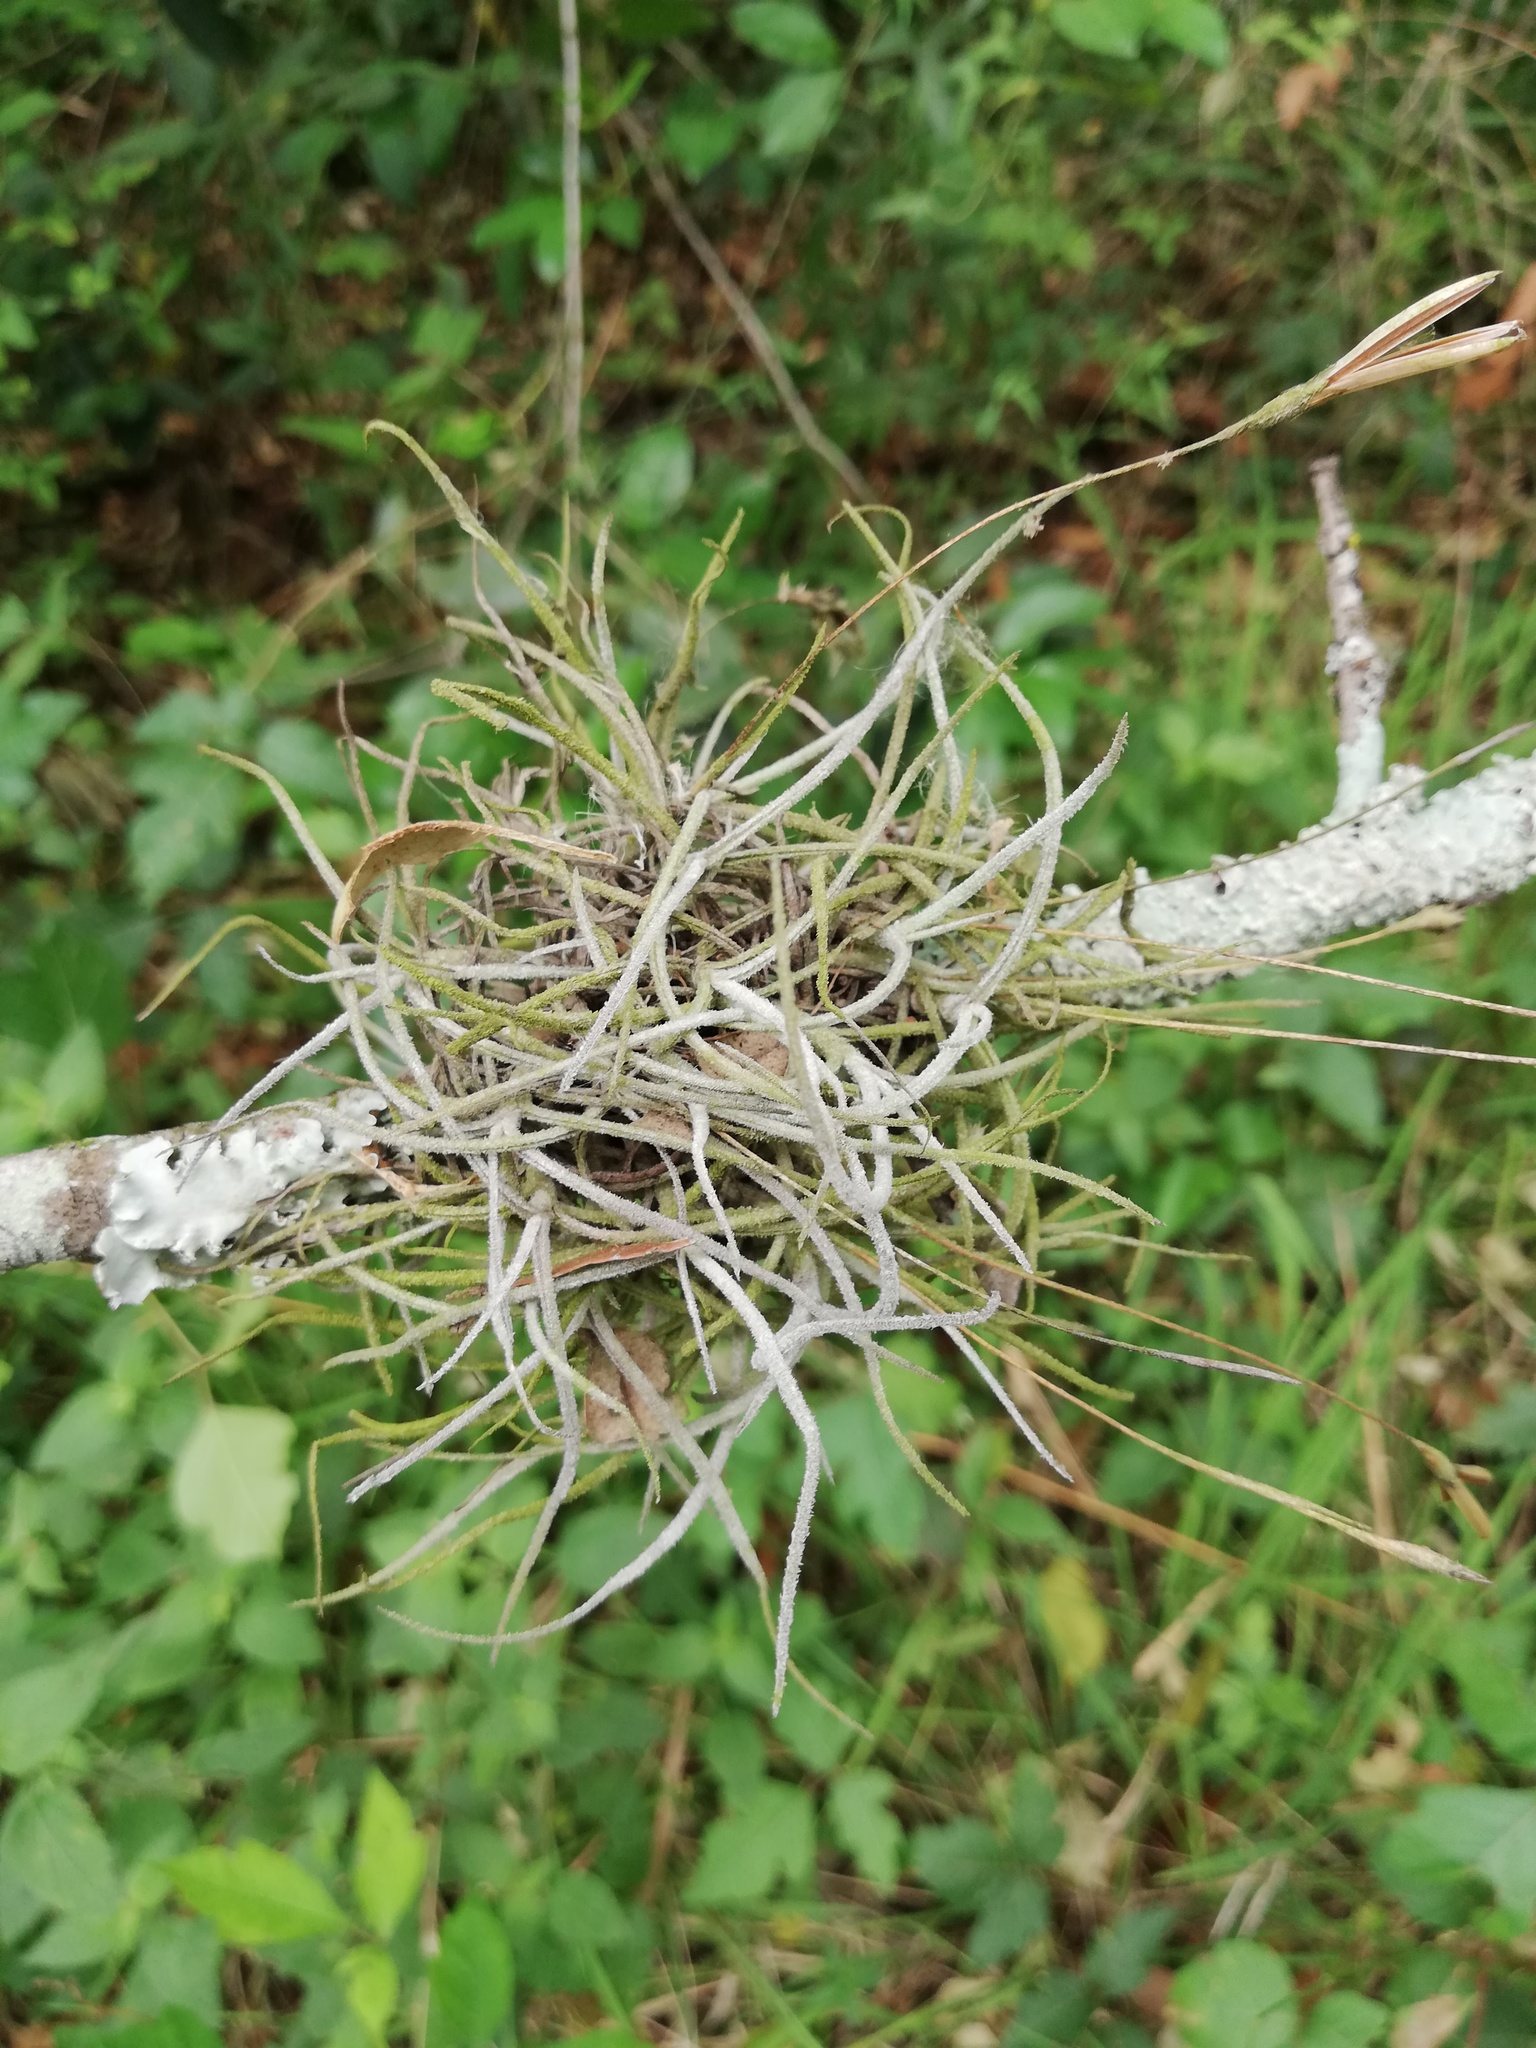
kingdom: Plantae
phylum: Tracheophyta
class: Liliopsida
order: Poales
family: Bromeliaceae
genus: Tillandsia
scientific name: Tillandsia recurvata
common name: Small ballmoss
